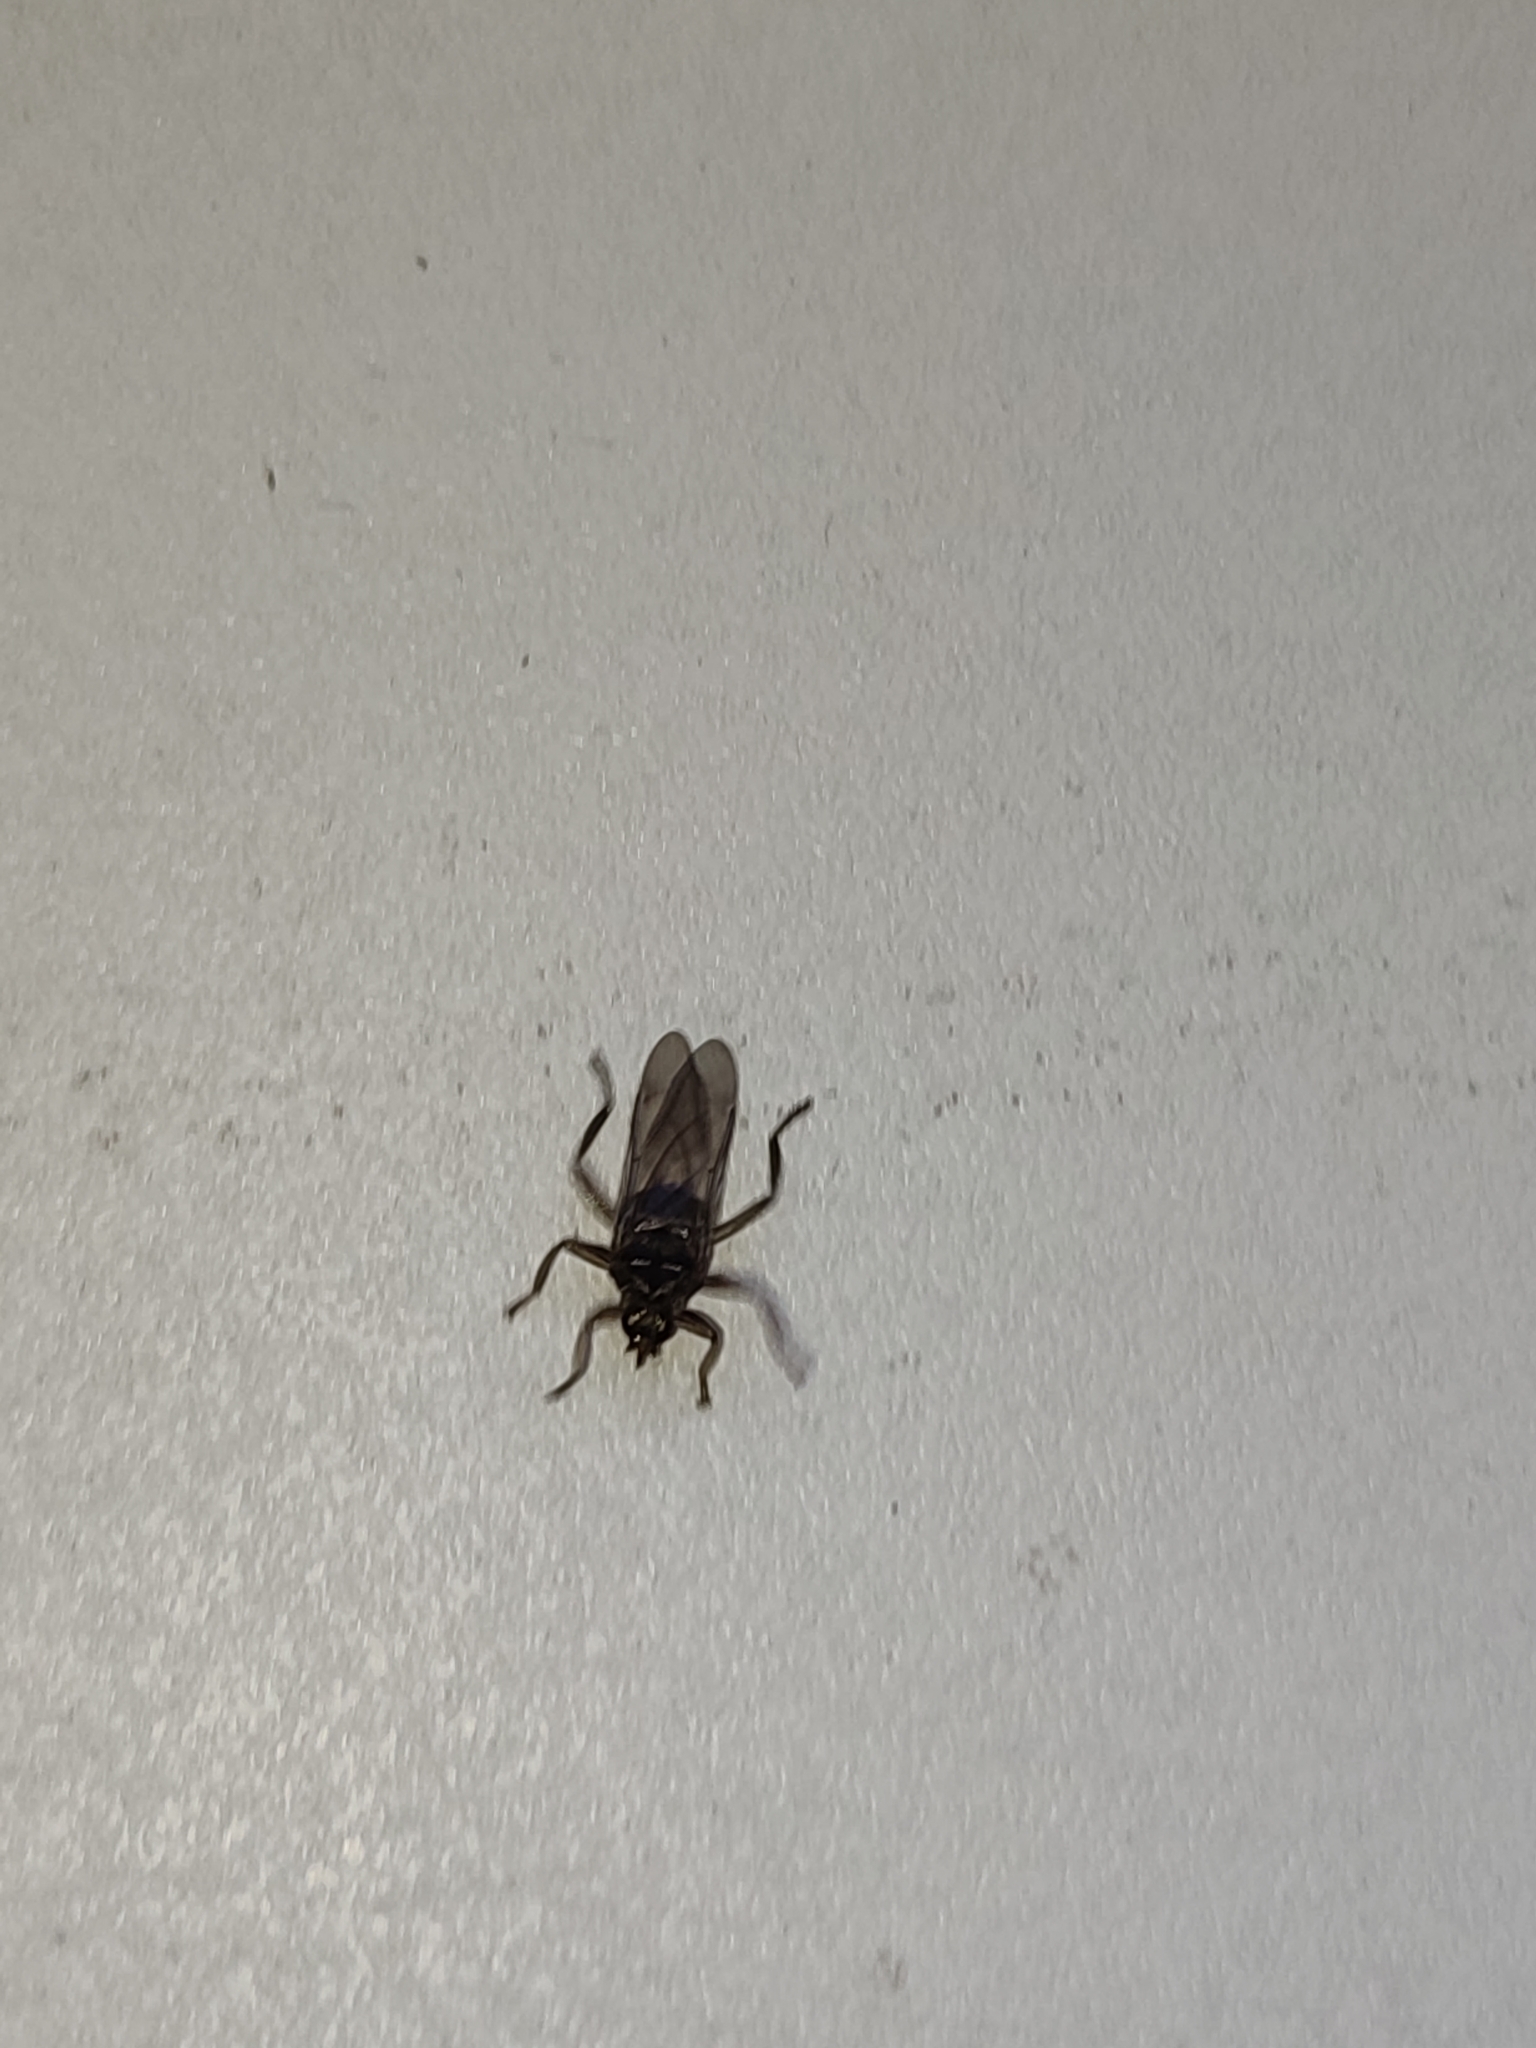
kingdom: Animalia
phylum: Arthropoda
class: Insecta
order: Diptera
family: Hippoboscidae
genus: Pseudolynchia
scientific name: Pseudolynchia canariensis
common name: Louse fly
